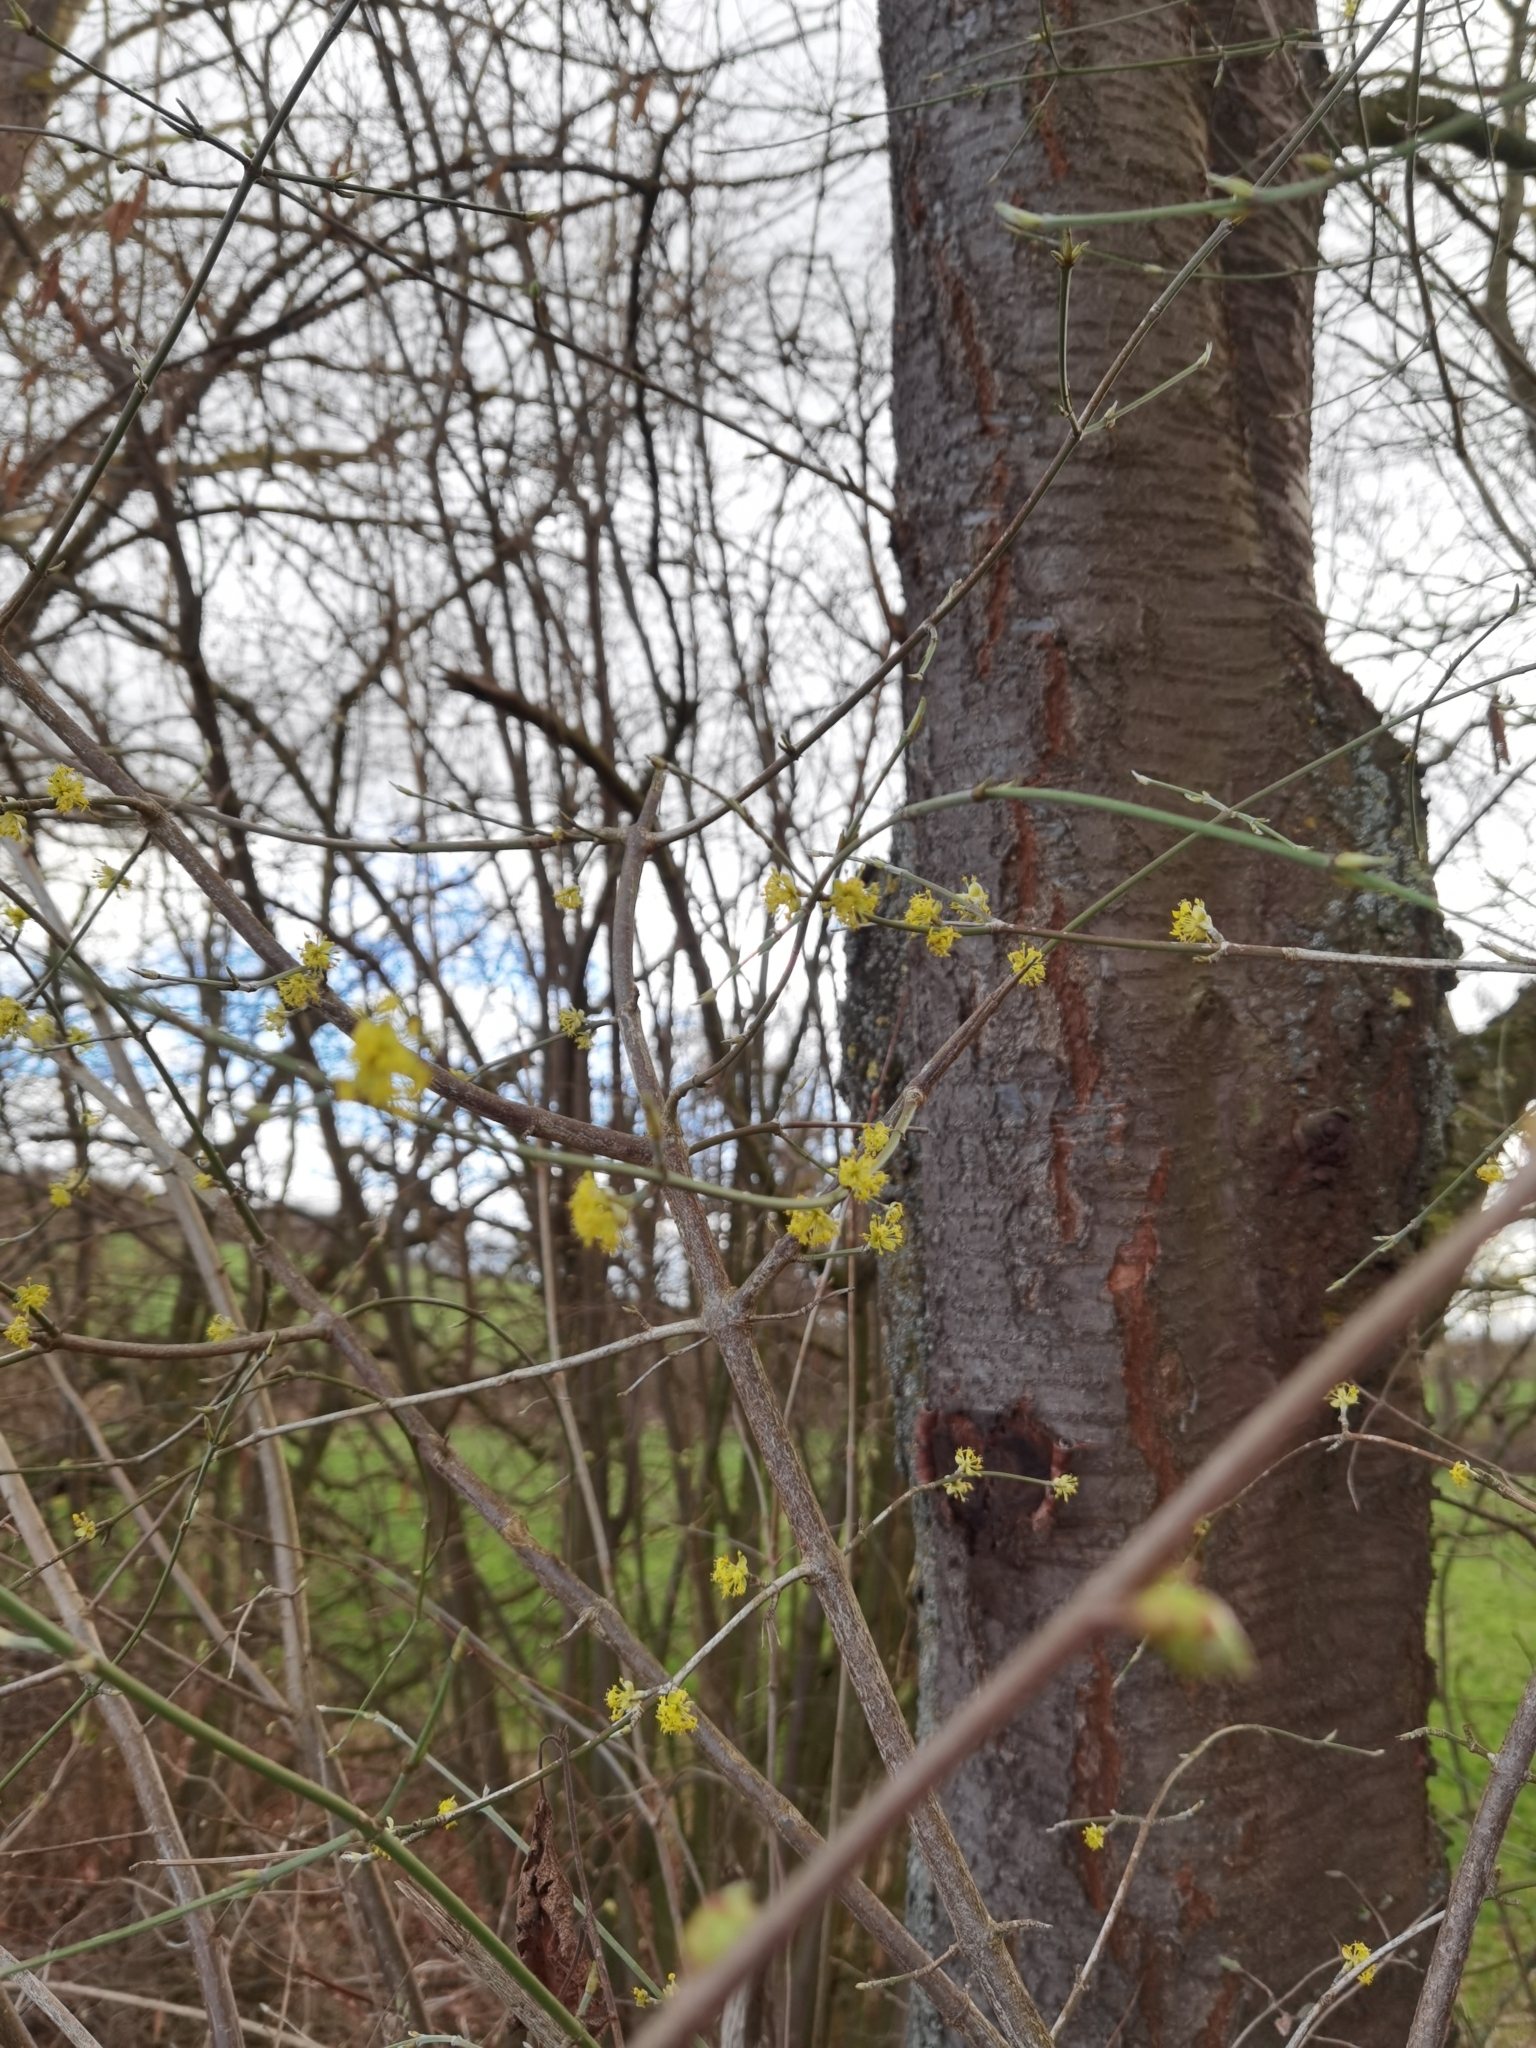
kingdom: Plantae
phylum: Tracheophyta
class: Magnoliopsida
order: Cornales
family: Cornaceae
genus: Cornus
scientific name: Cornus mas
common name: Cornelian-cherry
